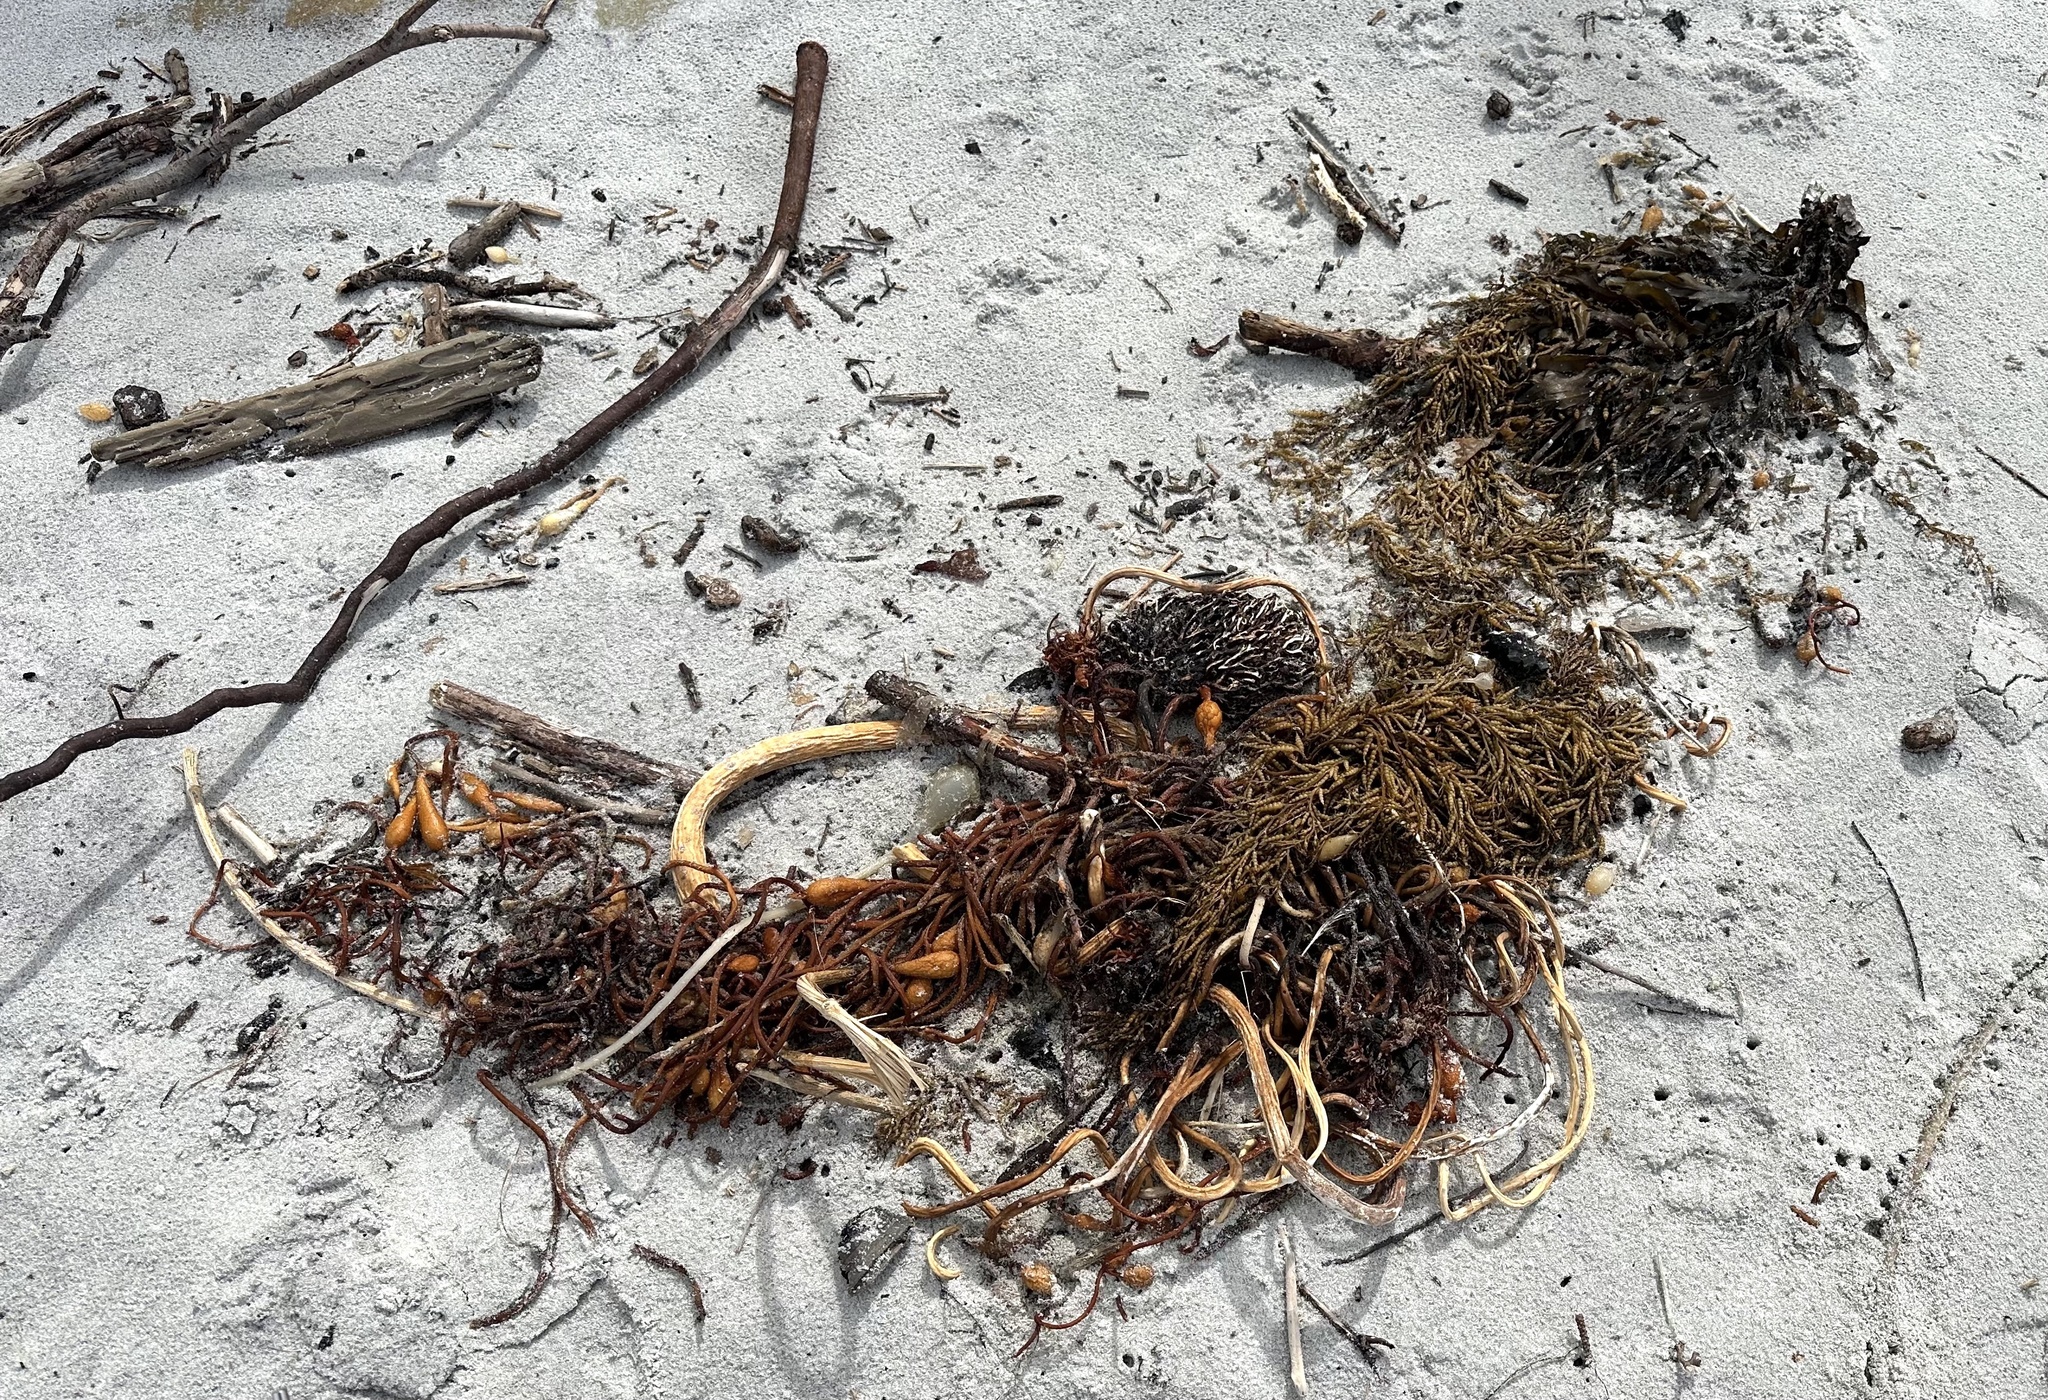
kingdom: Animalia
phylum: Arthropoda
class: Malacostraca
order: Amphipoda
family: Talitridae
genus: Megalorchestia
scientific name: Megalorchestia benedicti
